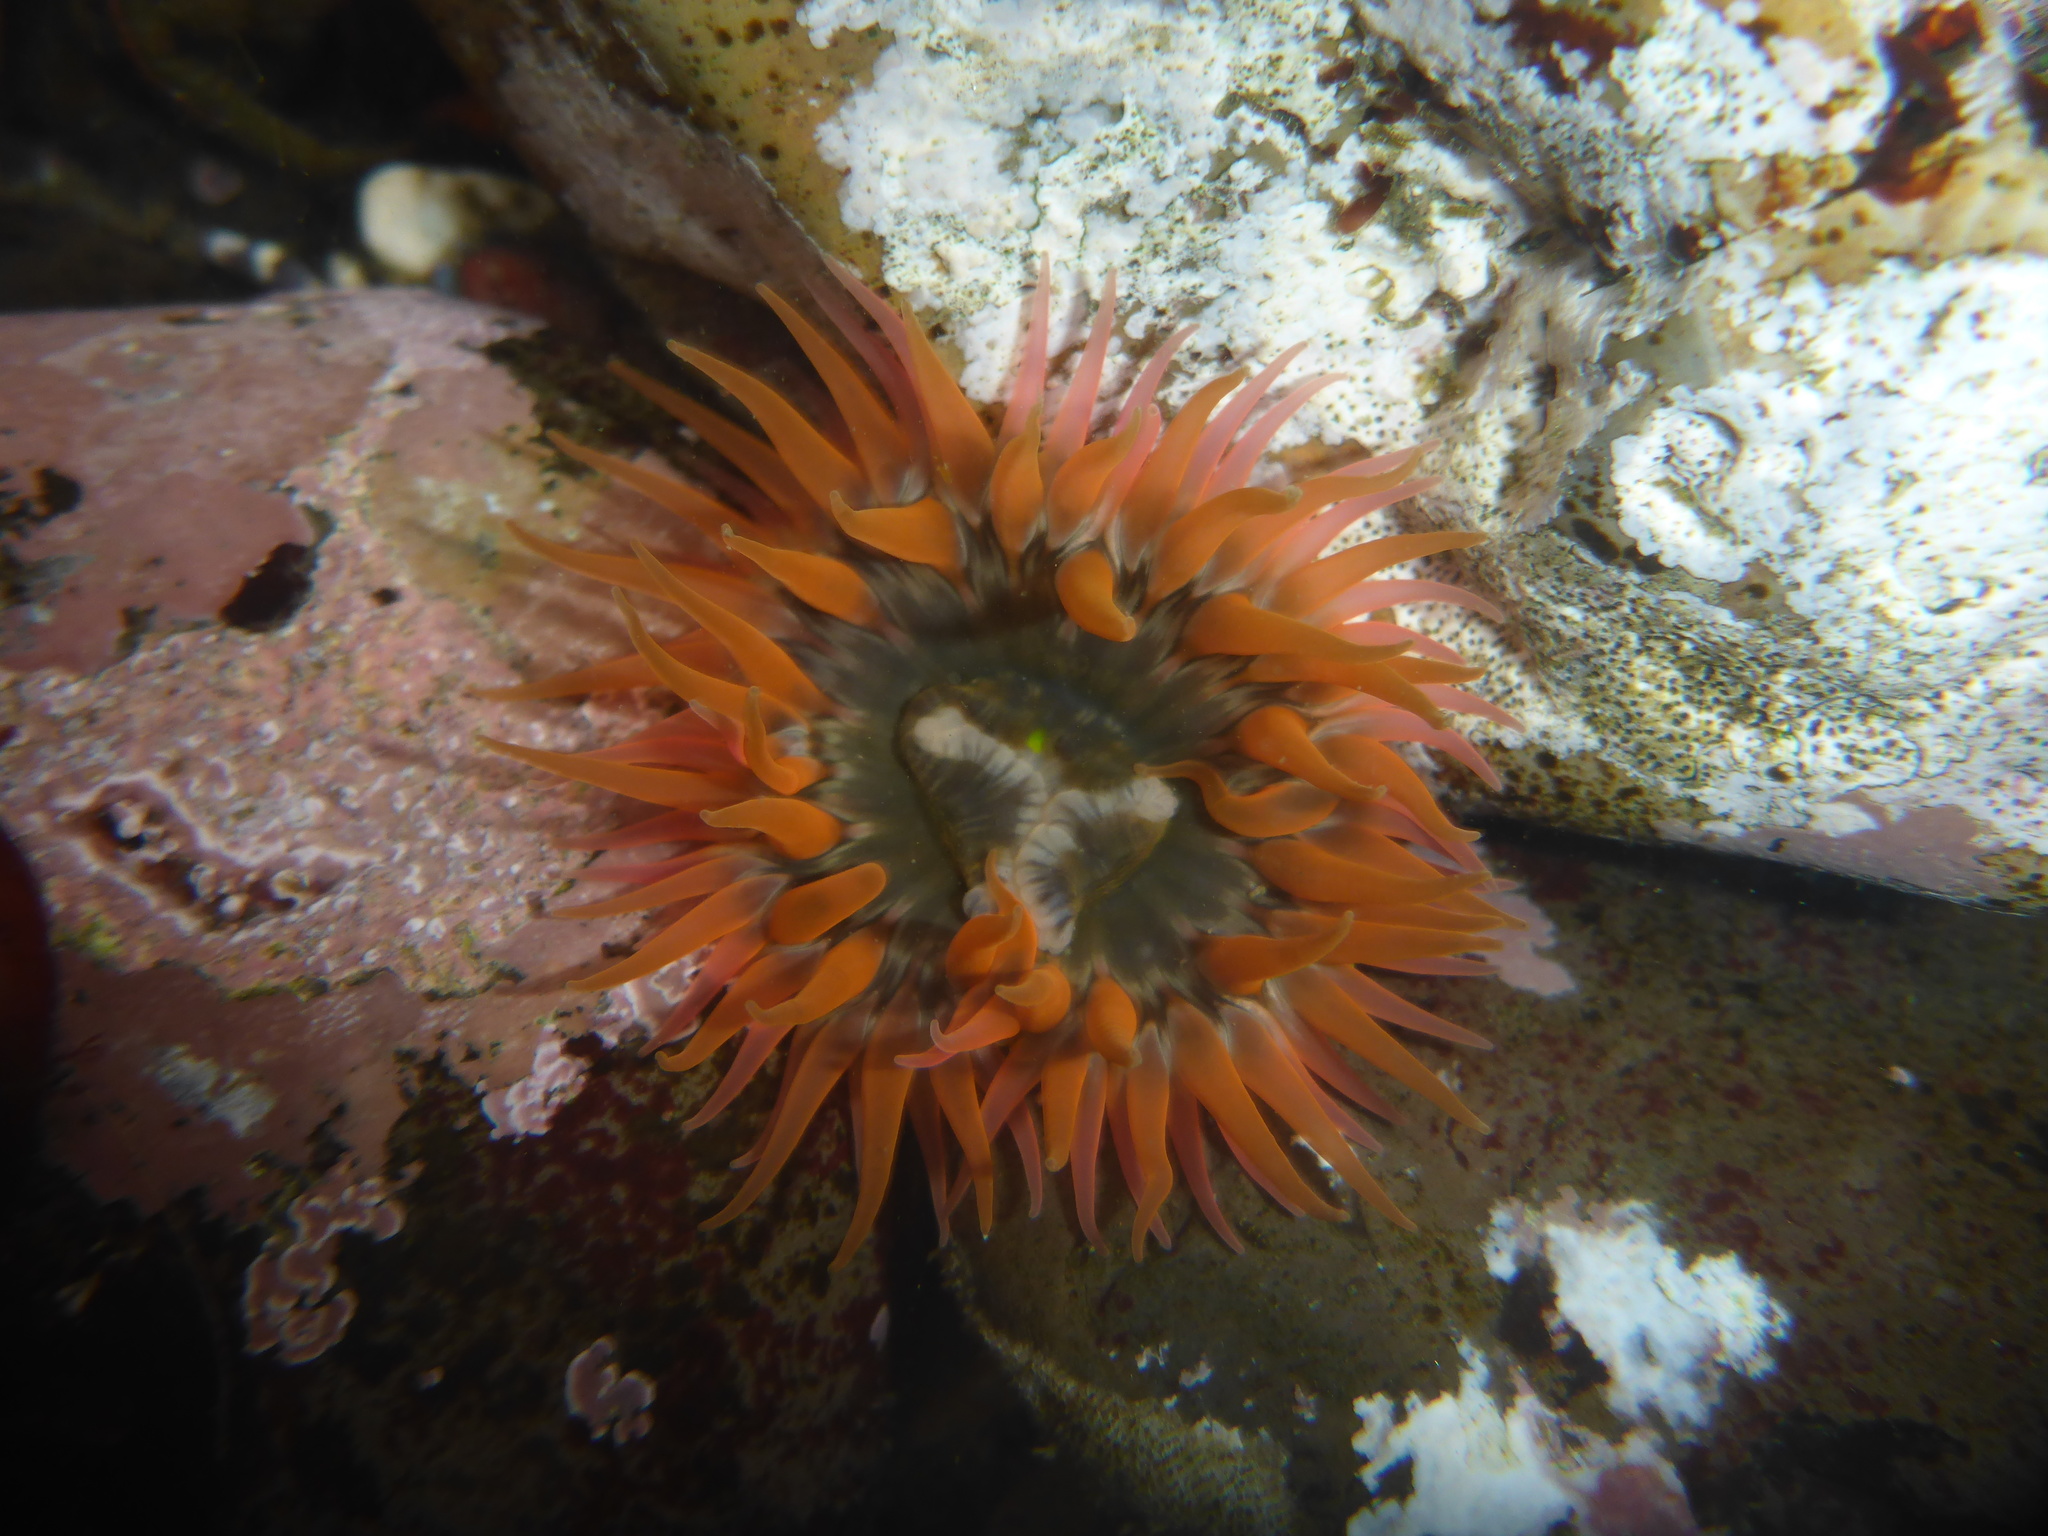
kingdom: Animalia
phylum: Cnidaria
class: Anthozoa
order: Actiniaria
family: Actiniidae
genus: Anthopleura
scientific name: Anthopleura artemisia
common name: Buried sea anemone
